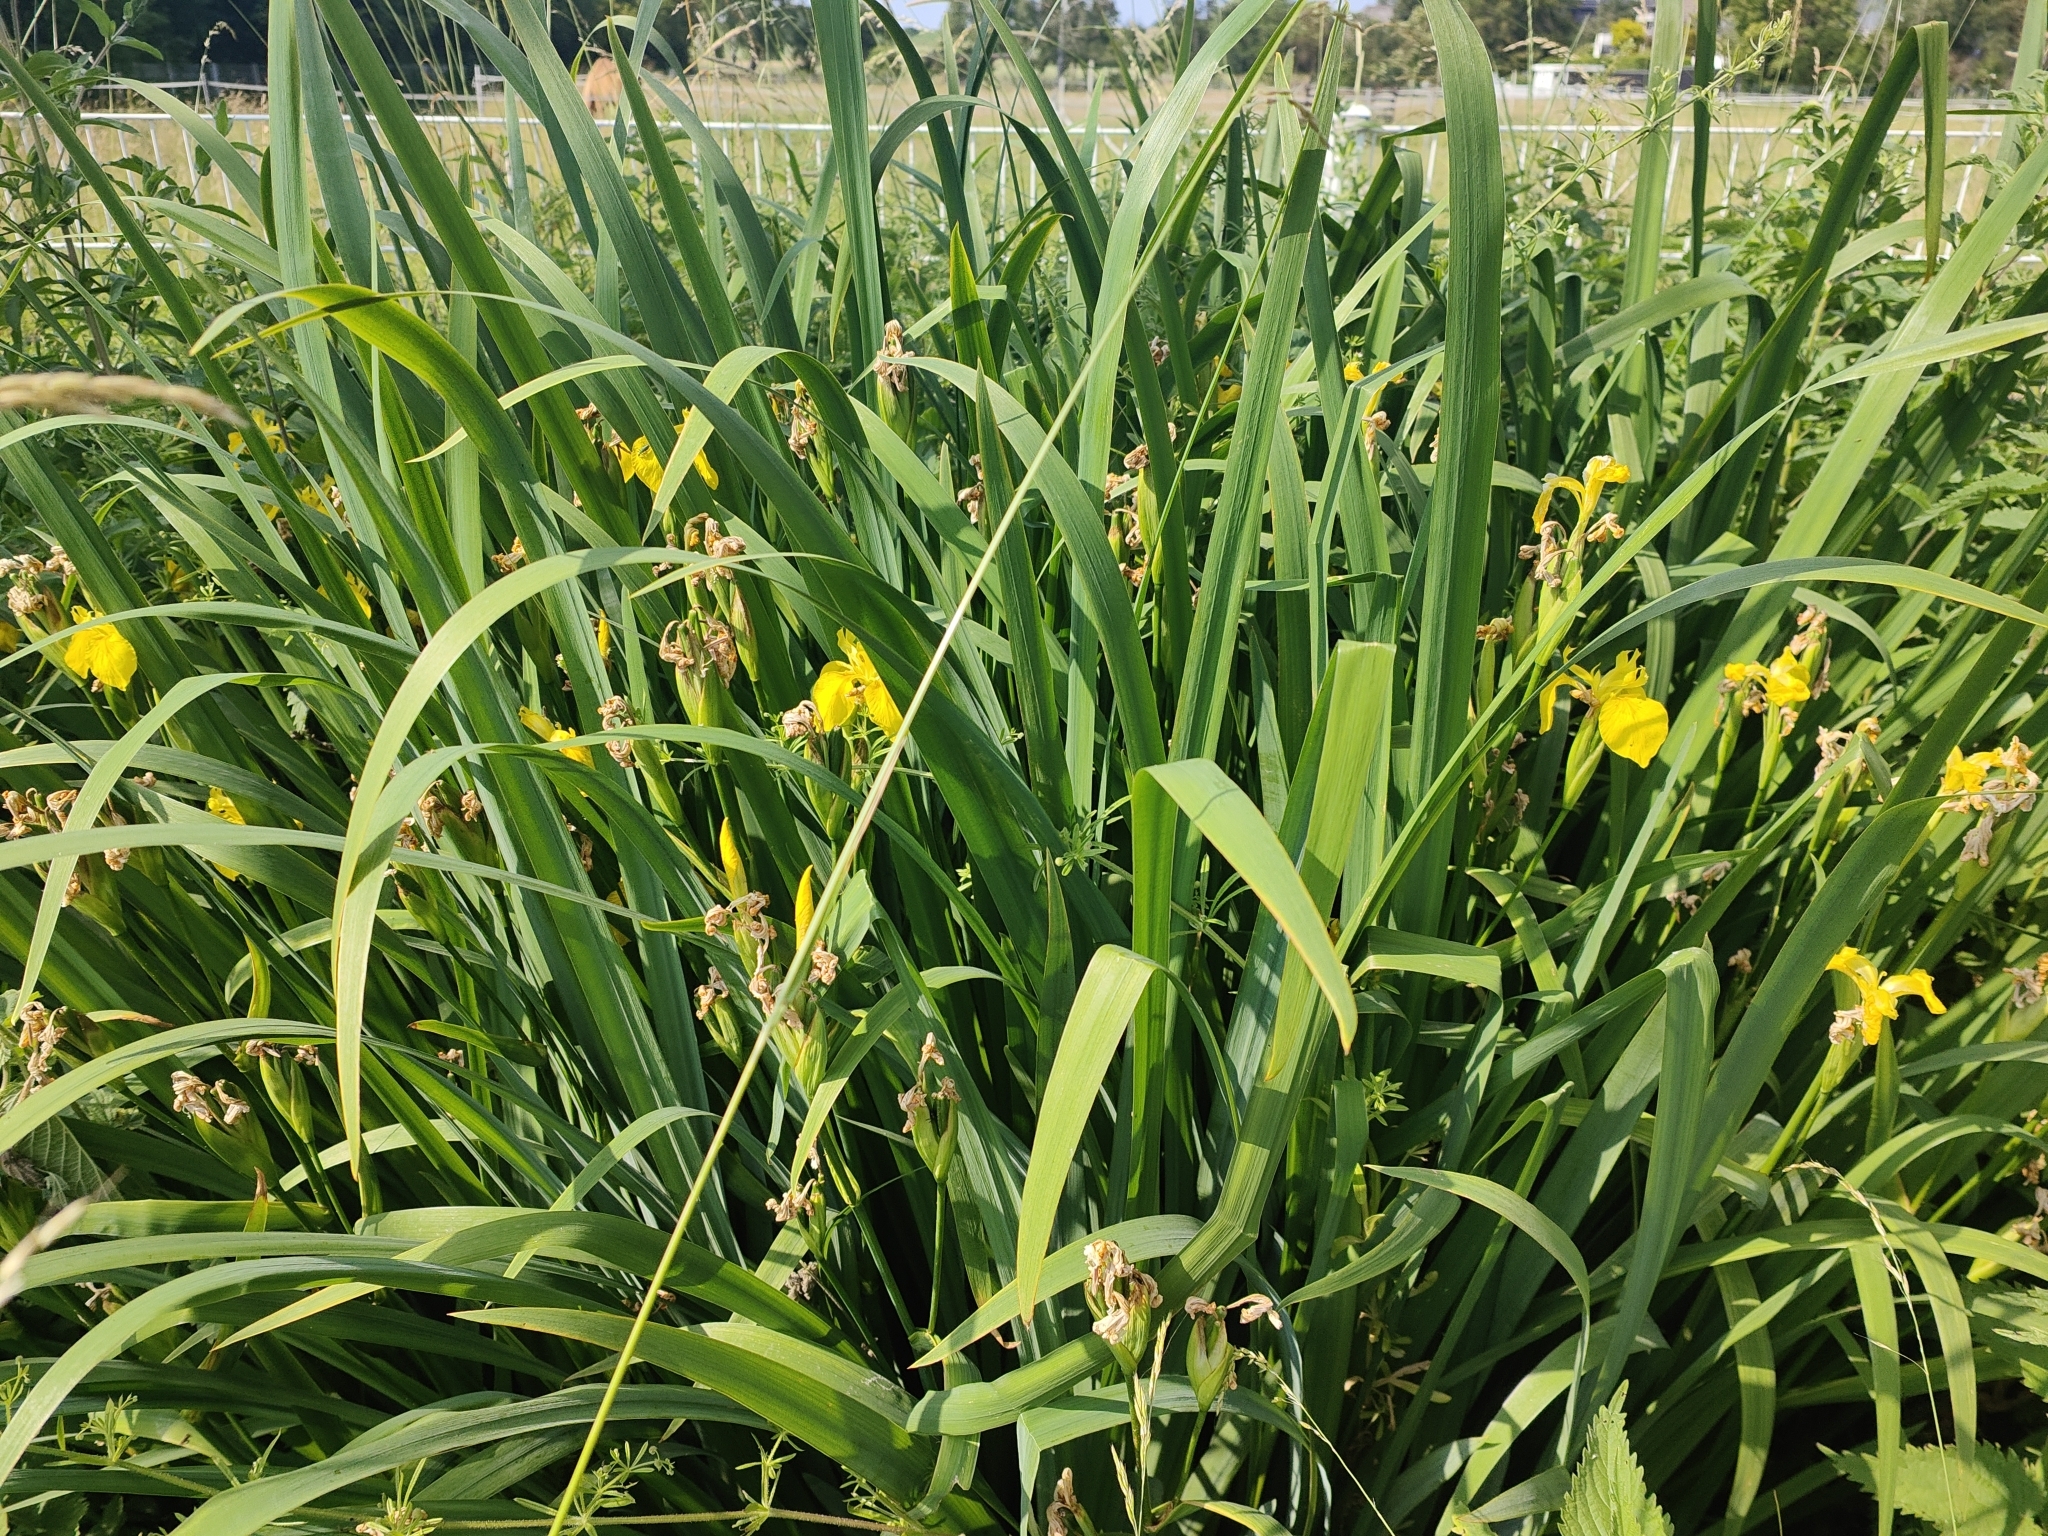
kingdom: Plantae
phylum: Tracheophyta
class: Liliopsida
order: Asparagales
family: Iridaceae
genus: Iris
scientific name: Iris pseudacorus
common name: Yellow flag
